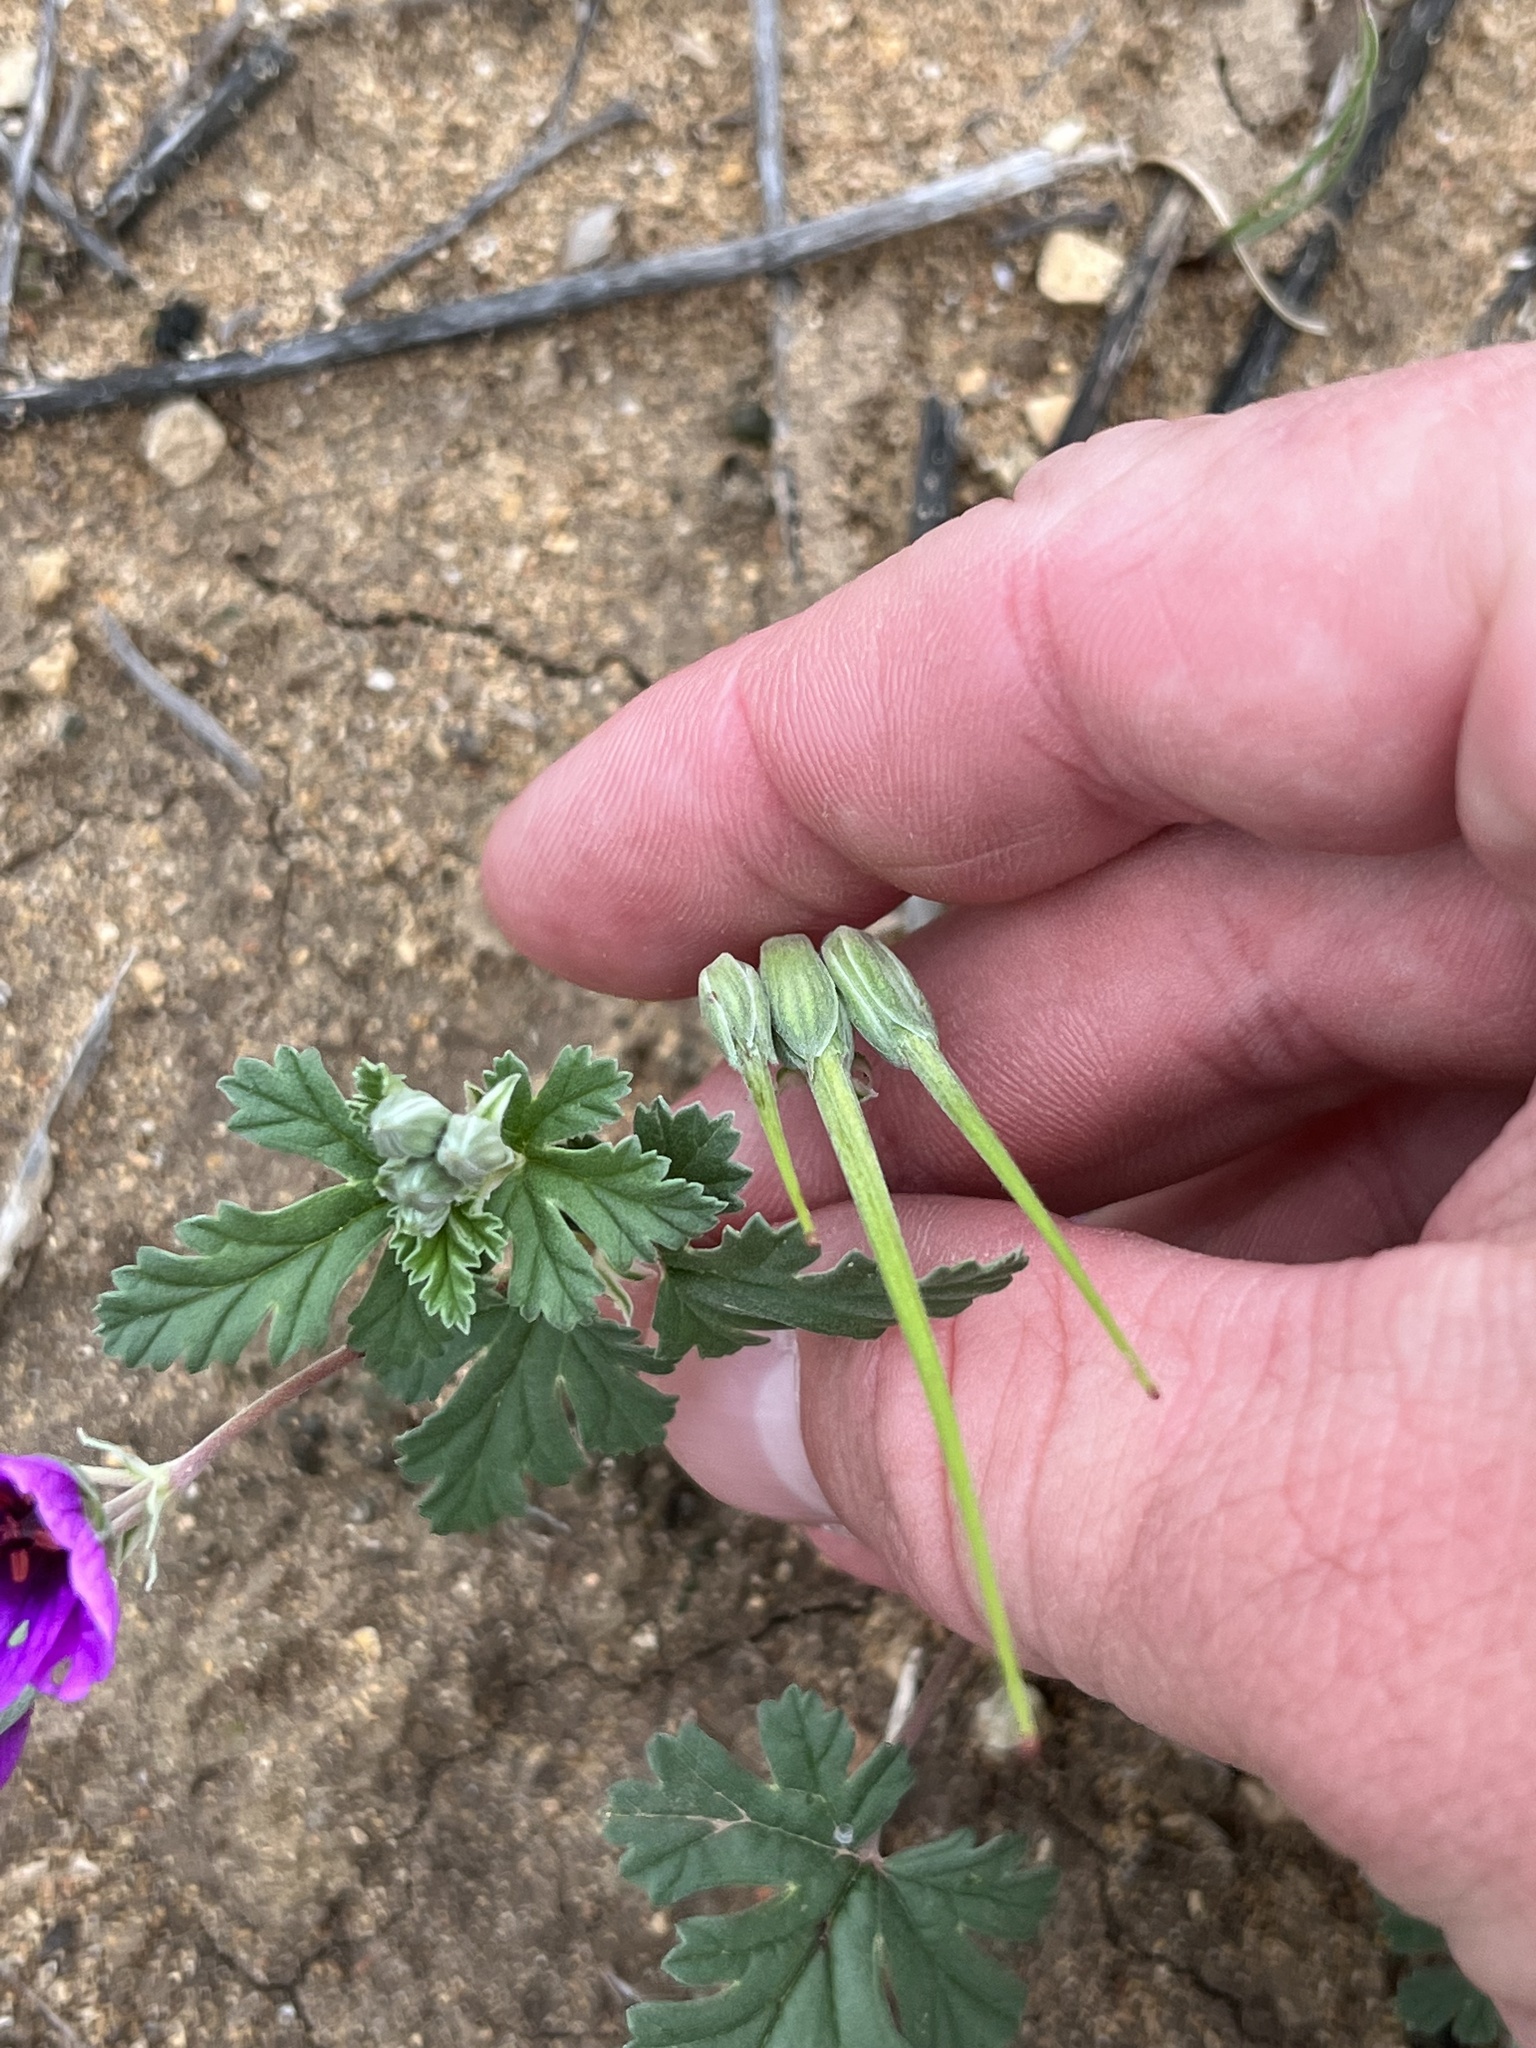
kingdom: Plantae
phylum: Tracheophyta
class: Magnoliopsida
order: Geraniales
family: Geraniaceae
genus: Erodium
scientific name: Erodium texanum
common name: Texas stork's-bill
